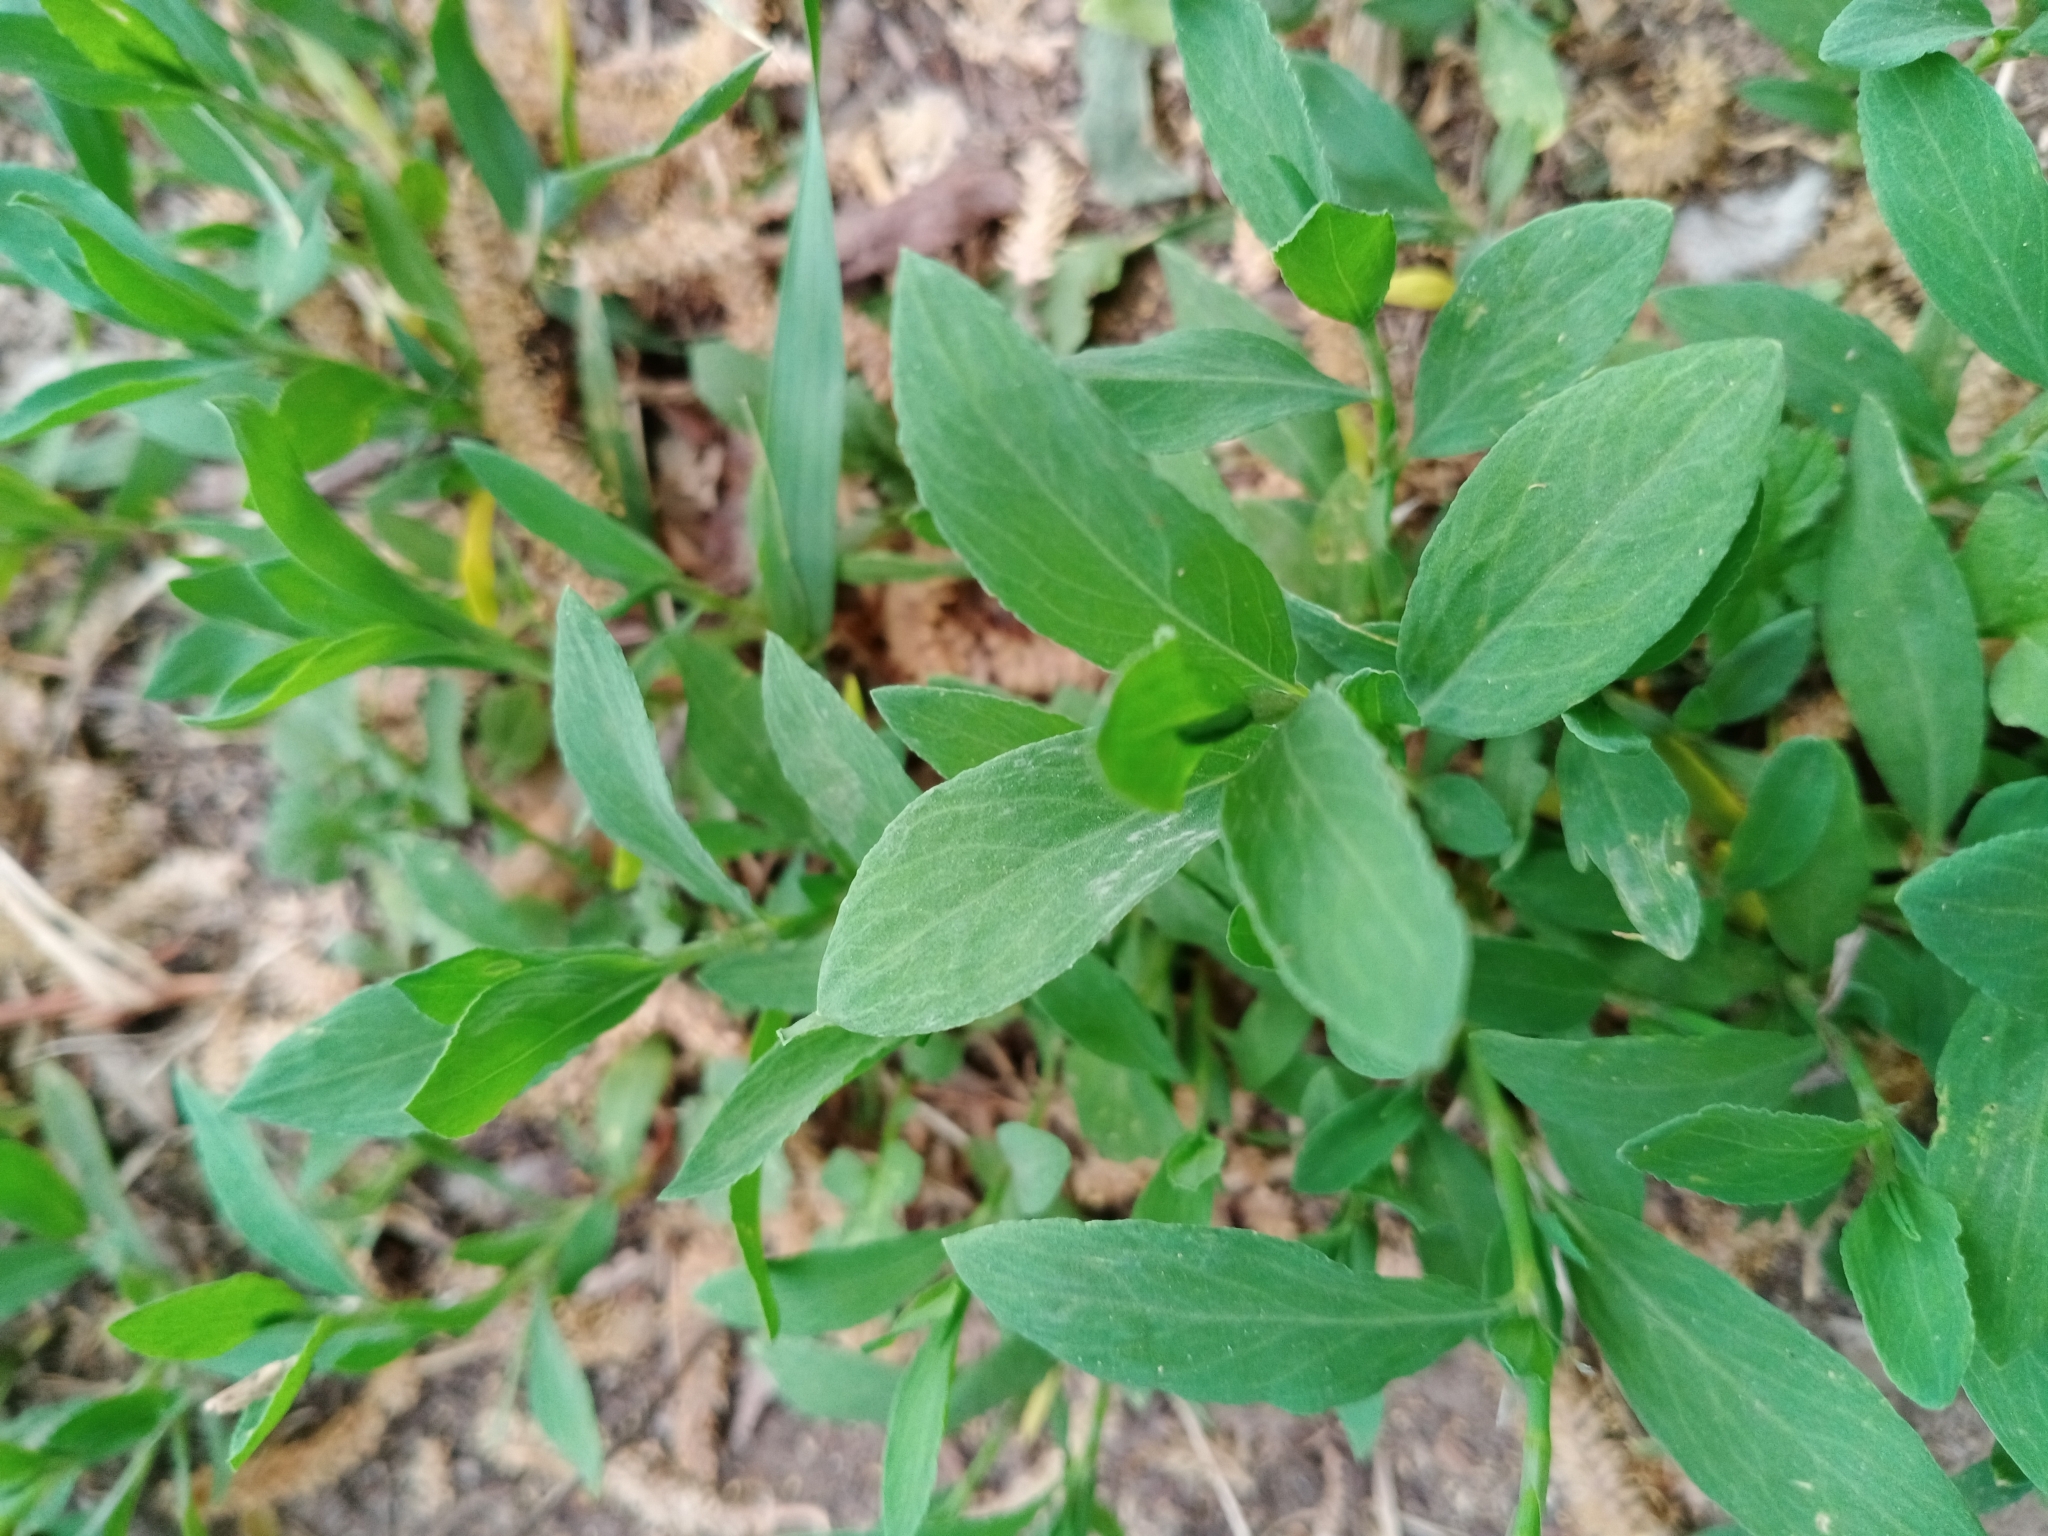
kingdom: Plantae
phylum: Tracheophyta
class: Magnoliopsida
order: Caryophyllales
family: Polygonaceae
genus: Polygonum
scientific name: Polygonum
